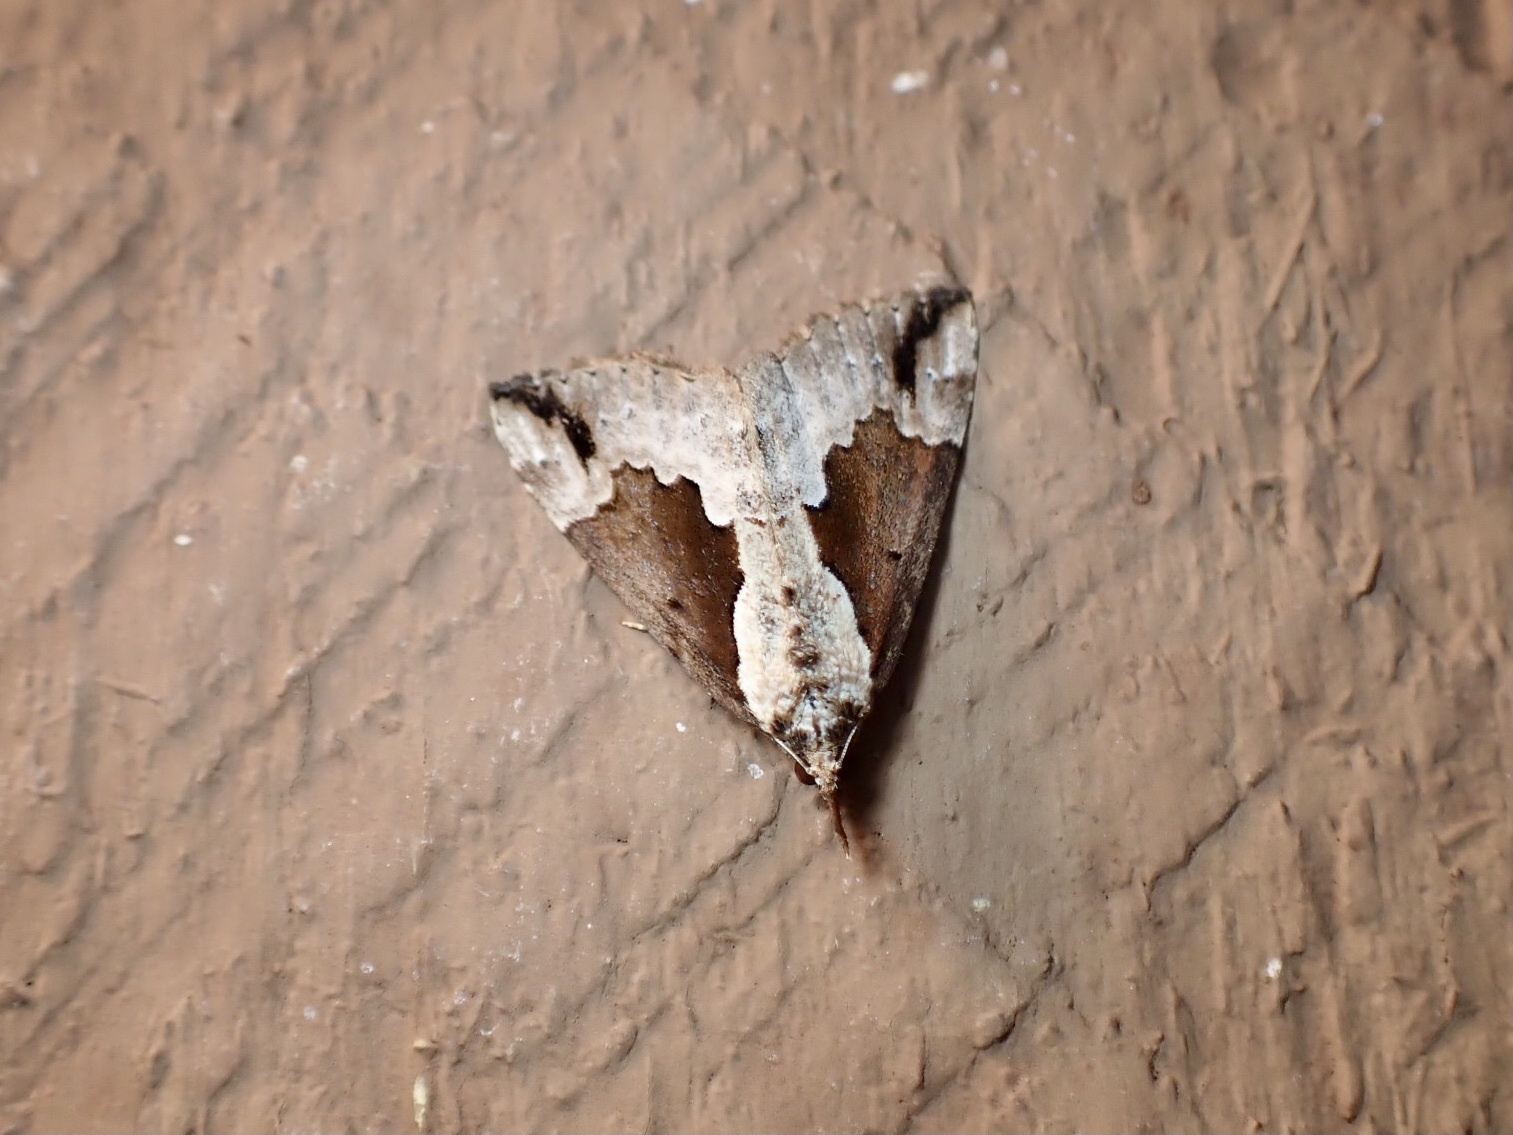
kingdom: Animalia
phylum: Arthropoda
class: Insecta
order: Lepidoptera
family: Erebidae
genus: Hypena
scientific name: Hypena baltimoralis
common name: Baltimore snout
